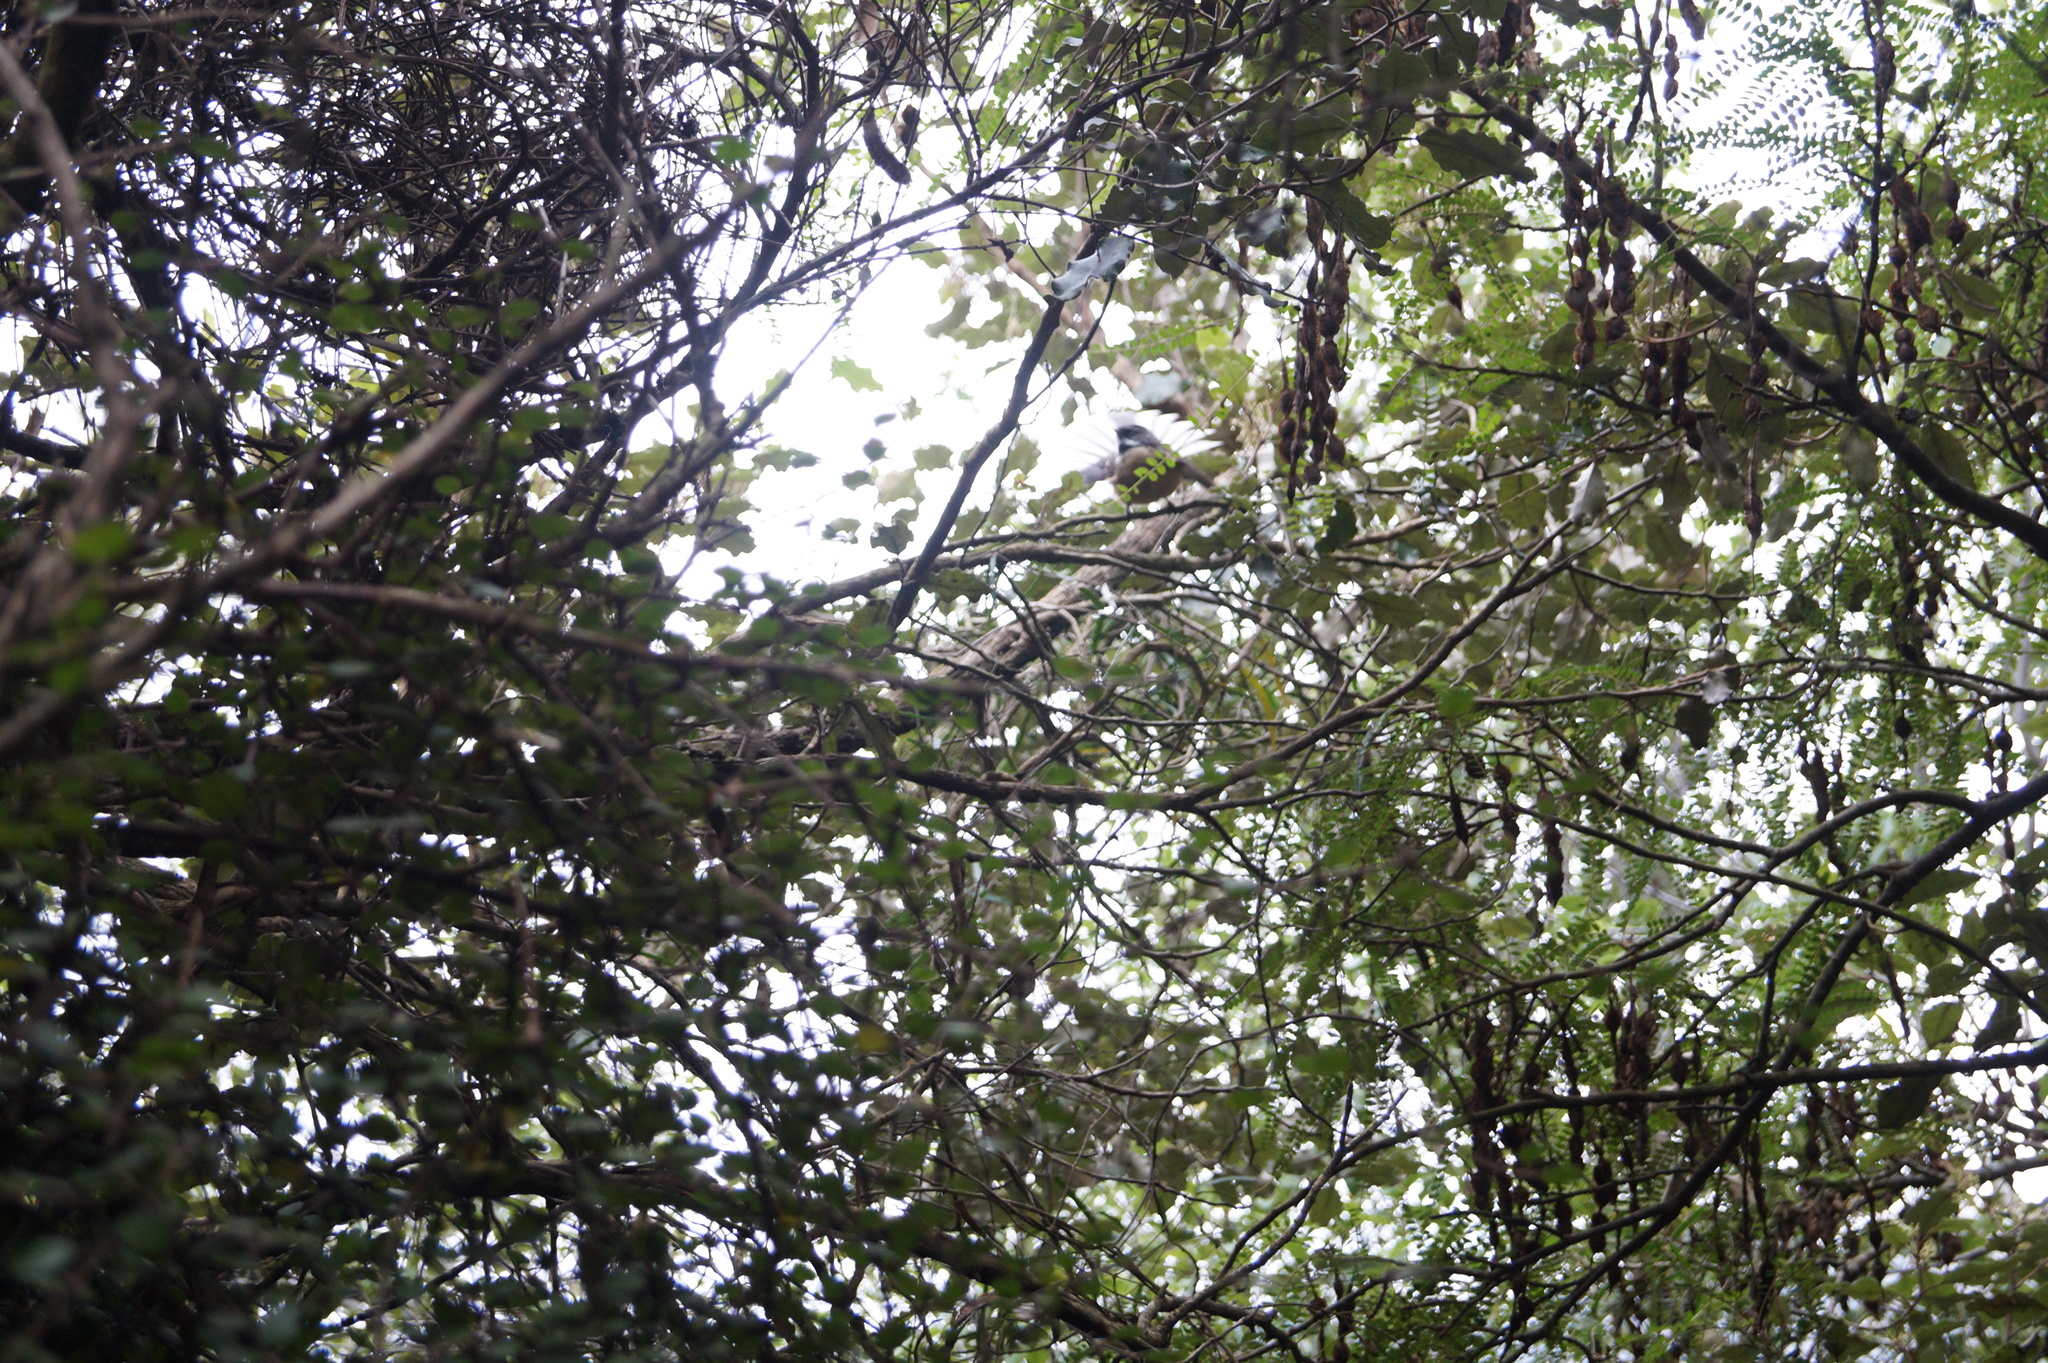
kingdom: Animalia
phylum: Chordata
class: Aves
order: Passeriformes
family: Rhipiduridae
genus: Rhipidura
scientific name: Rhipidura fuliginosa
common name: New zealand fantail
